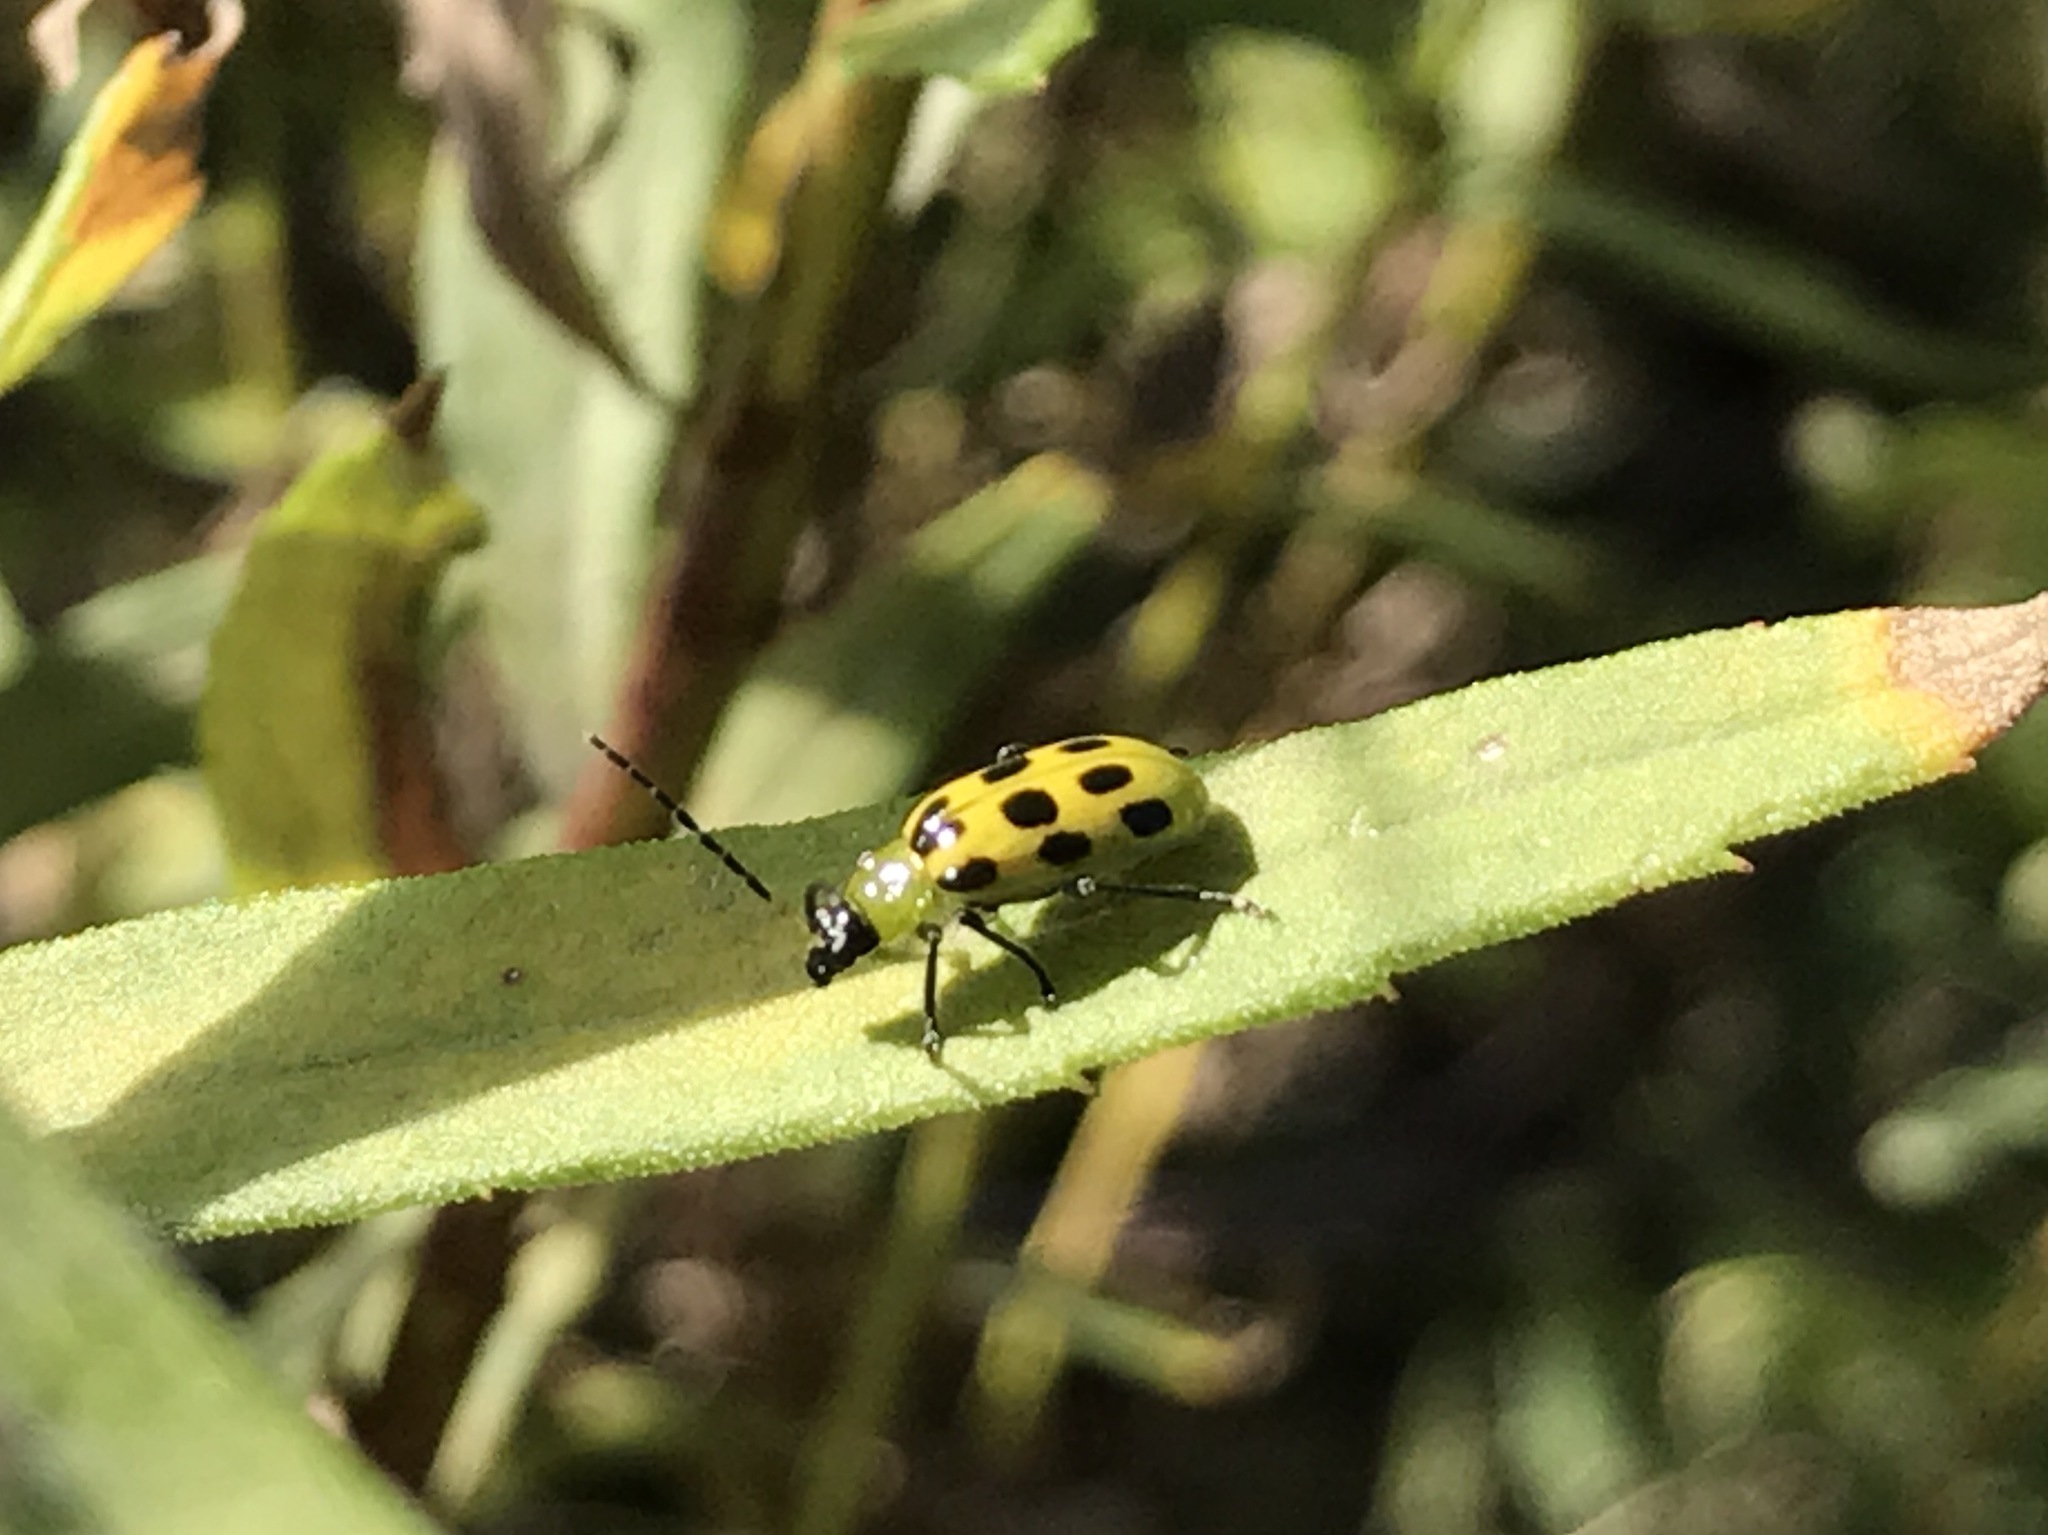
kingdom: Animalia
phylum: Arthropoda
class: Insecta
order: Coleoptera
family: Chrysomelidae
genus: Diabrotica
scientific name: Diabrotica undecimpunctata
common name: Spotted cucumber beetle
